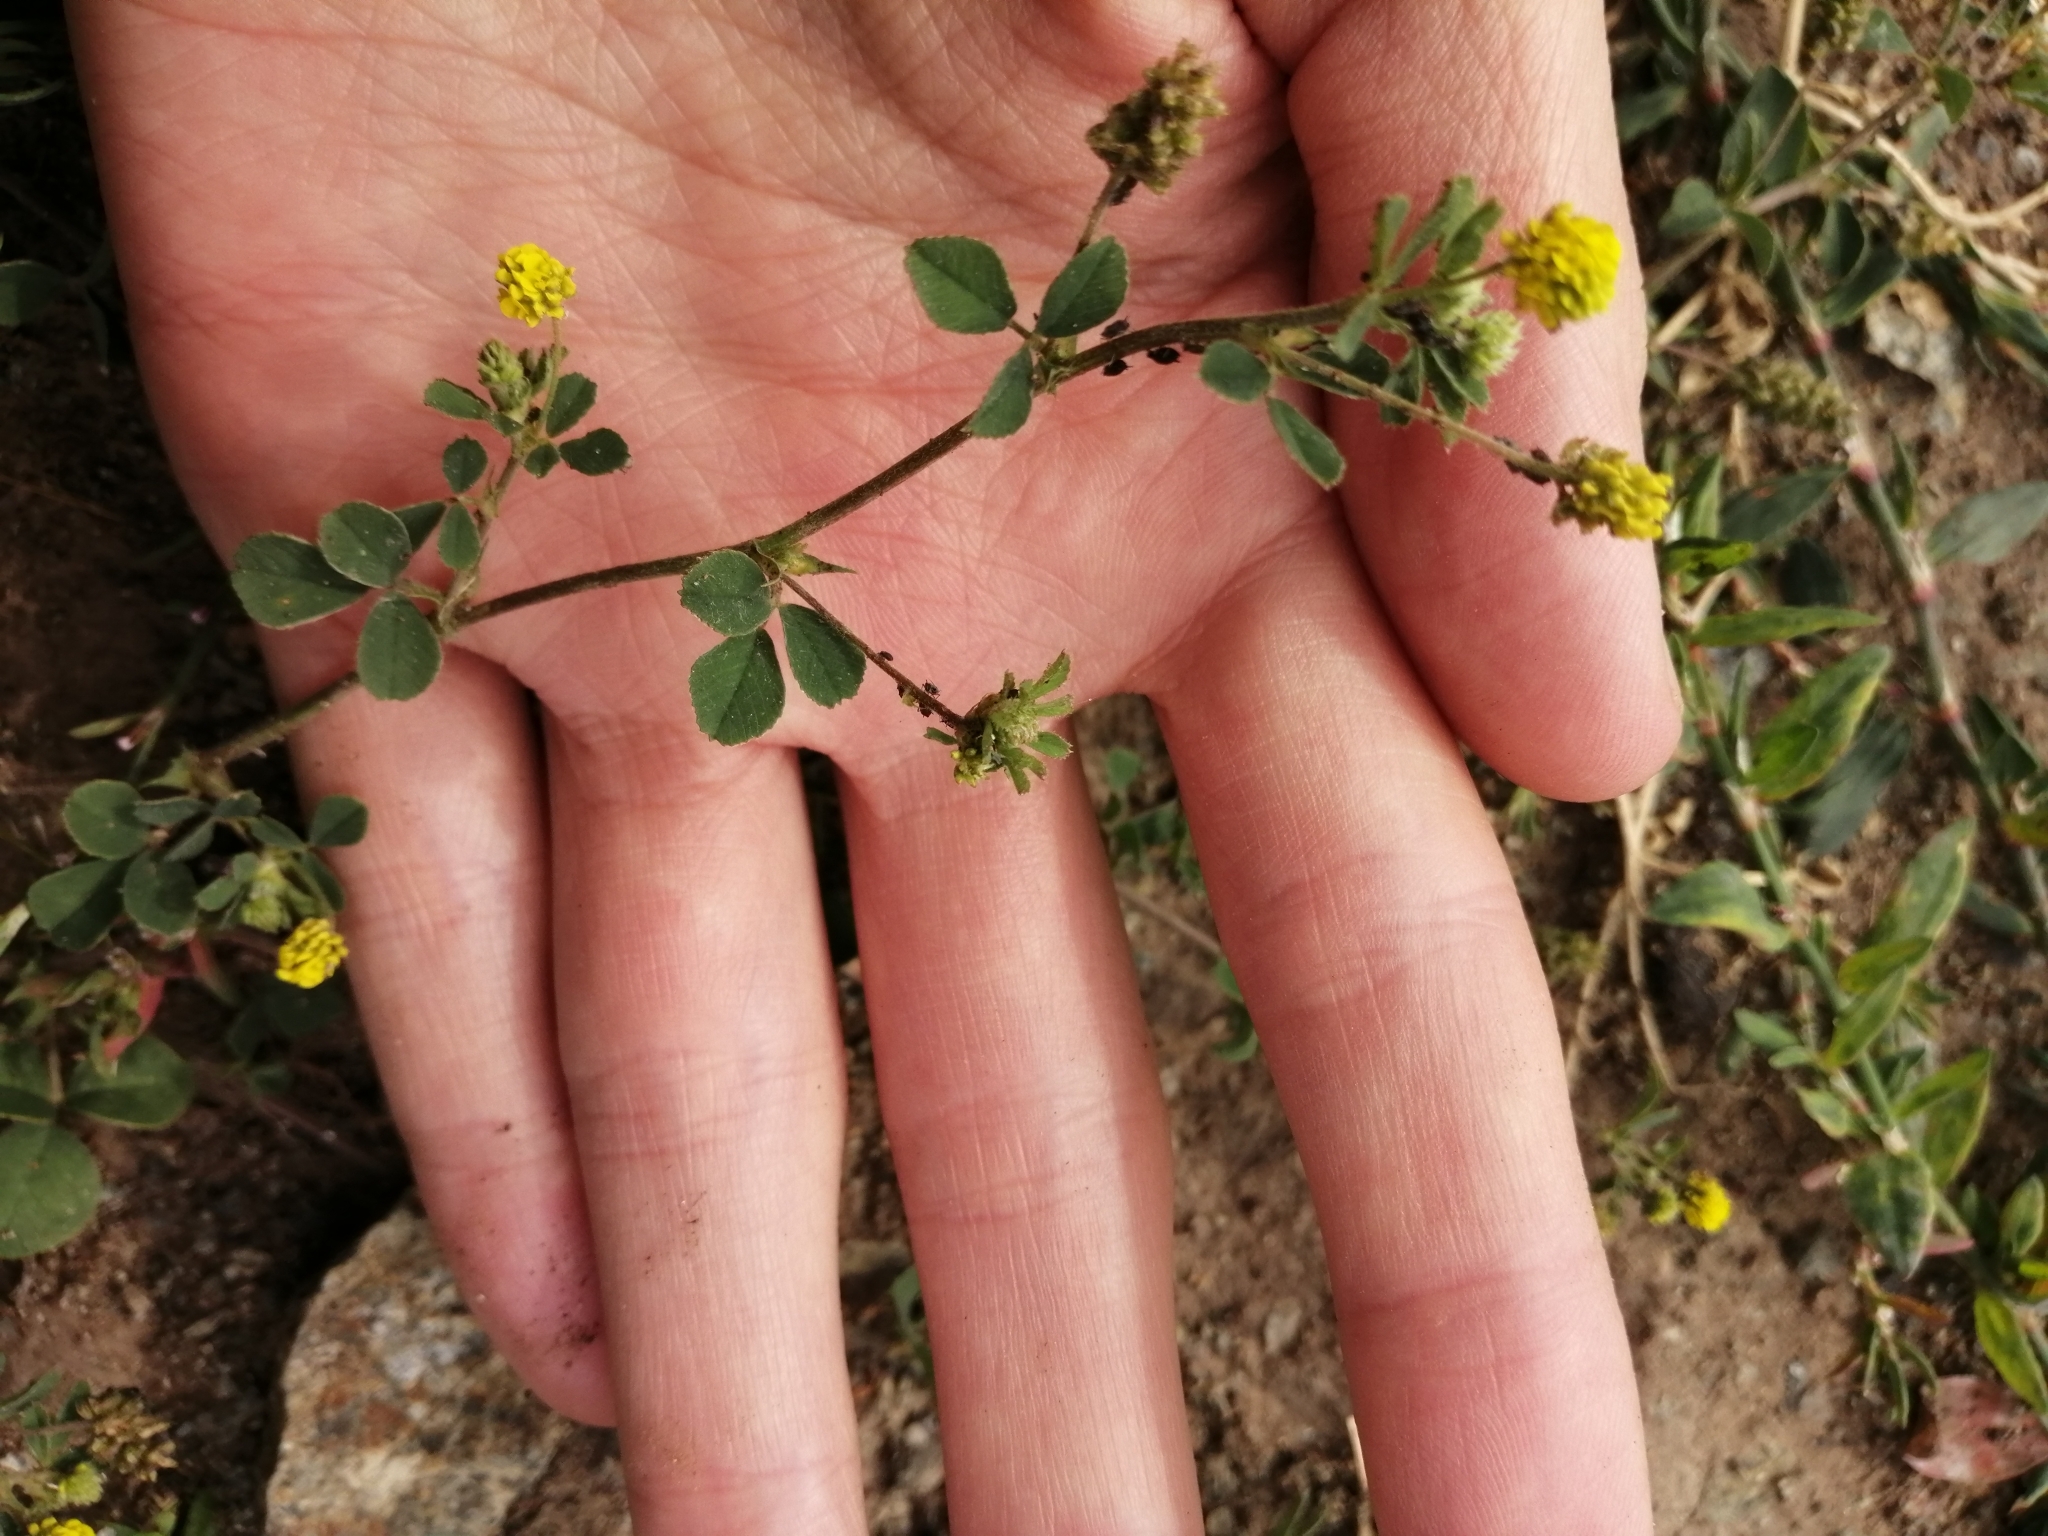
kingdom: Plantae
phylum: Tracheophyta
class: Magnoliopsida
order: Fabales
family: Fabaceae
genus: Medicago
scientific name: Medicago lupulina
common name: Black medick
